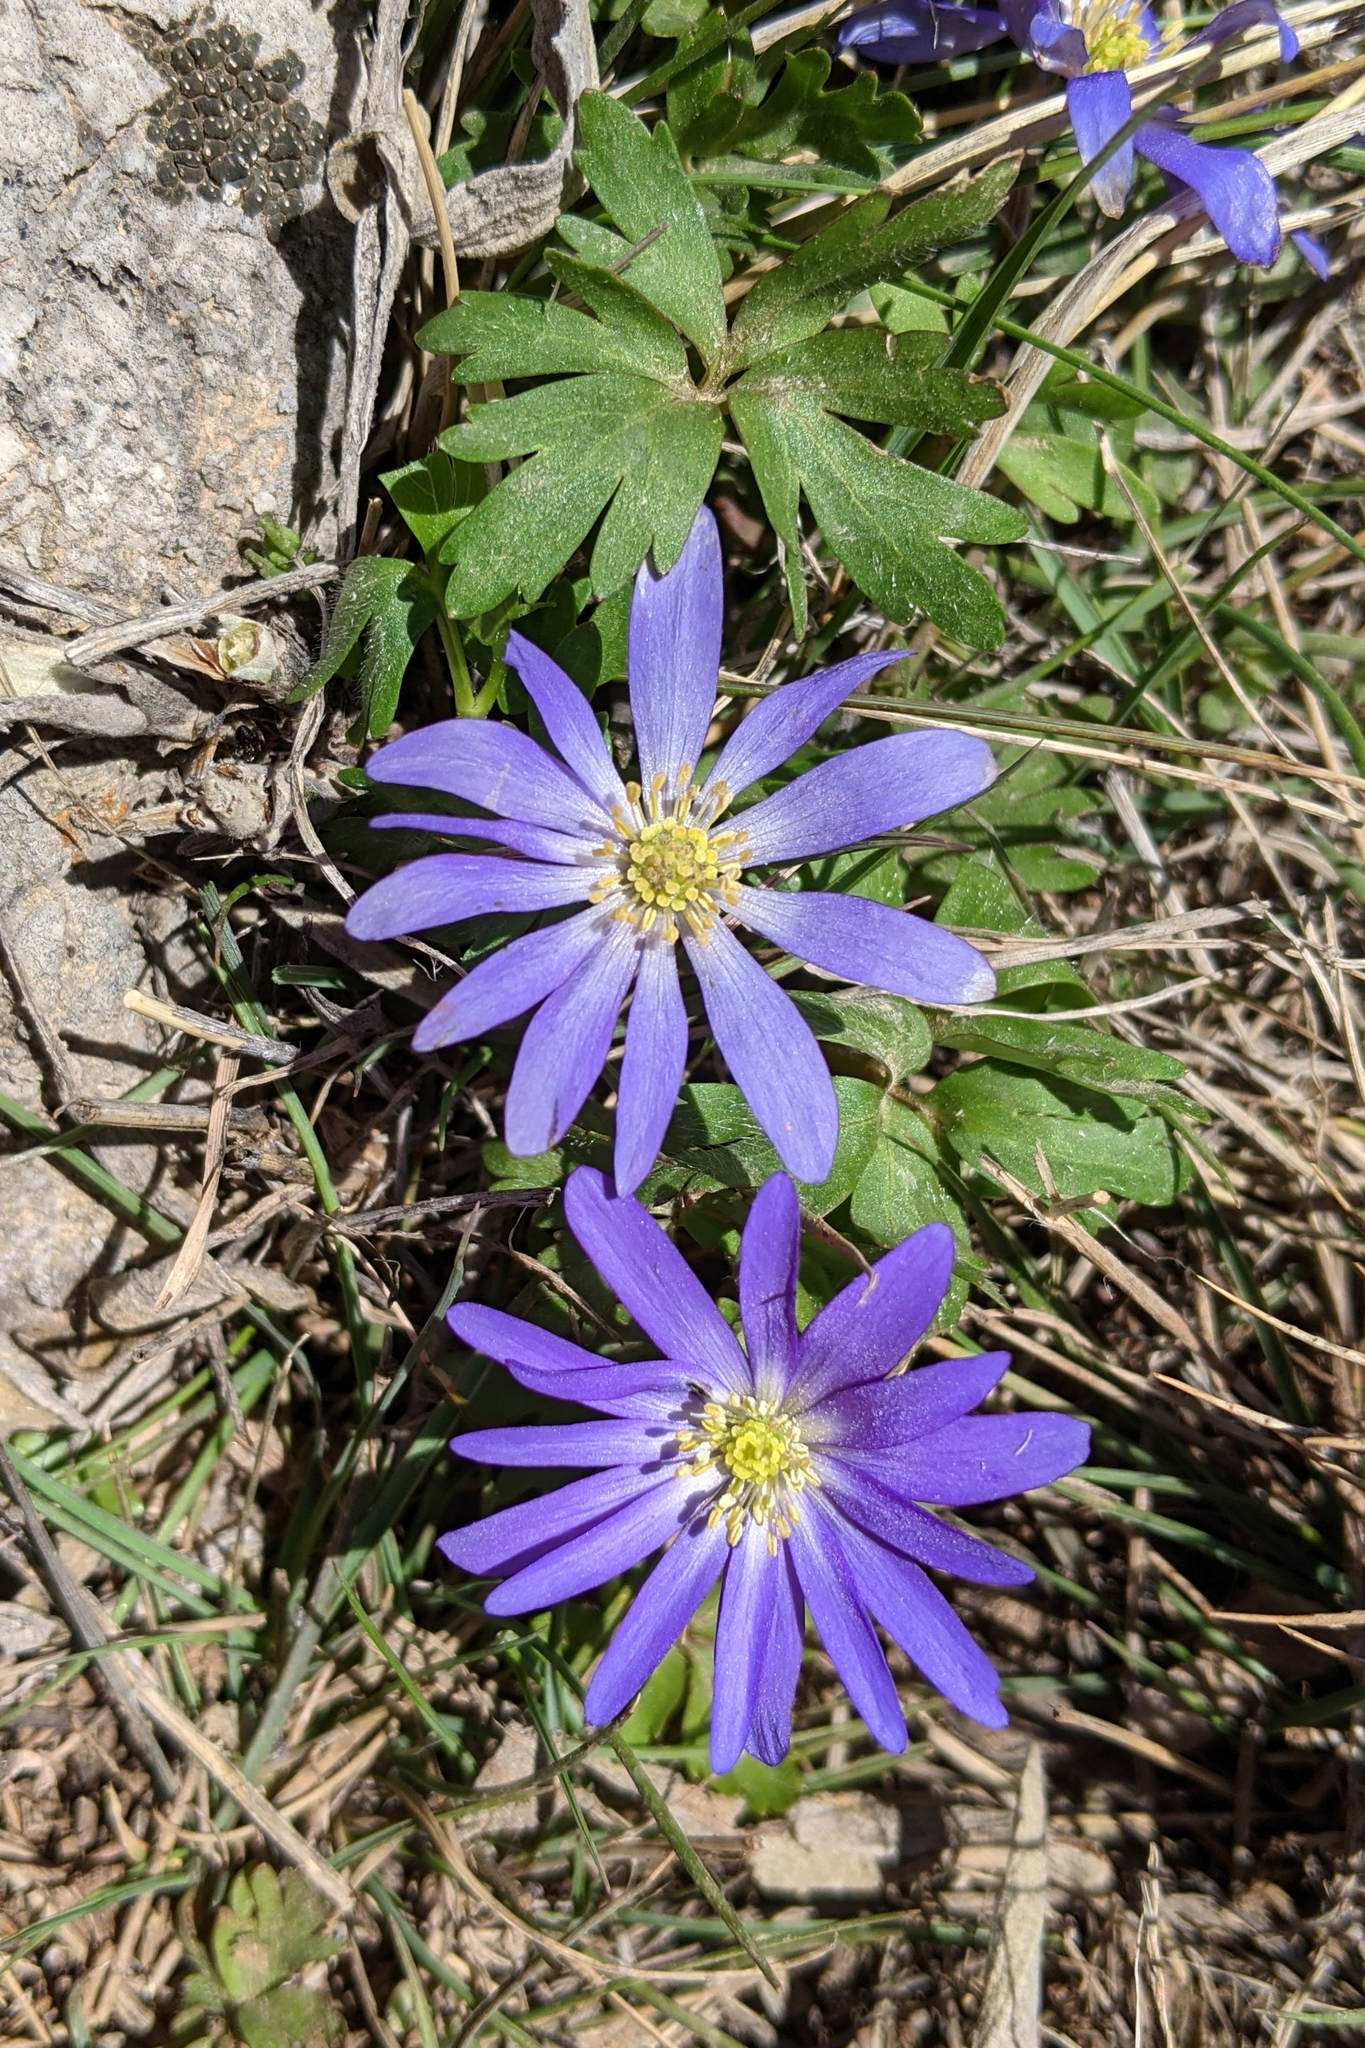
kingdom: Plantae
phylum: Tracheophyta
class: Magnoliopsida
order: Ranunculales
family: Ranunculaceae
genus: Anemone
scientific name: Anemone blanda
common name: Balkan anemone
